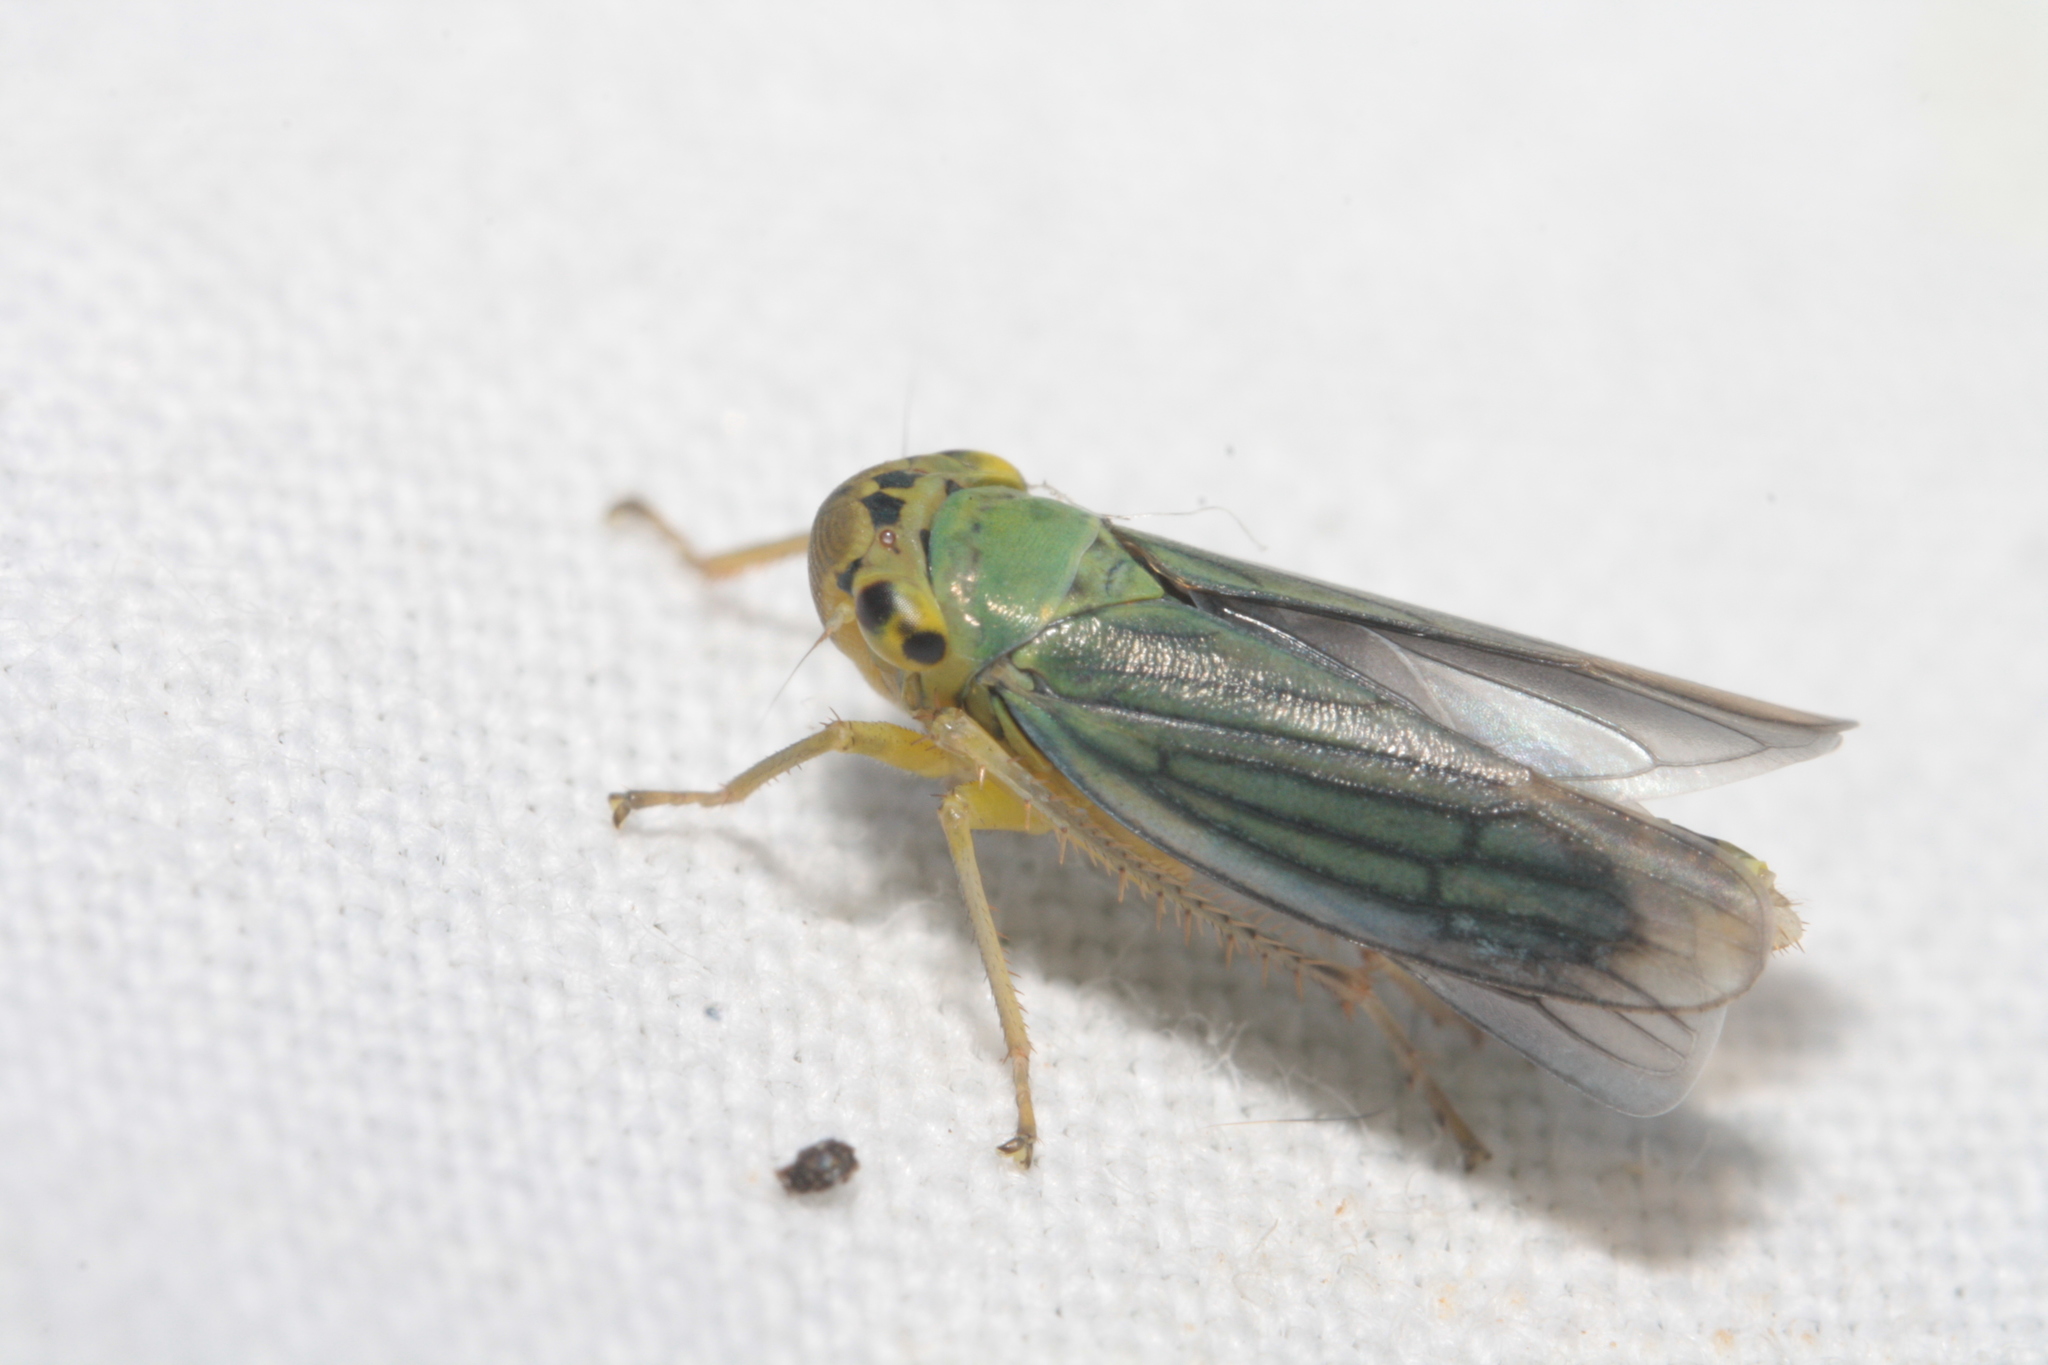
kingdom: Animalia
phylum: Arthropoda
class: Insecta
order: Hemiptera
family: Cicadellidae
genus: Cicadella
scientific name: Cicadella viridis
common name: Leafhopper
